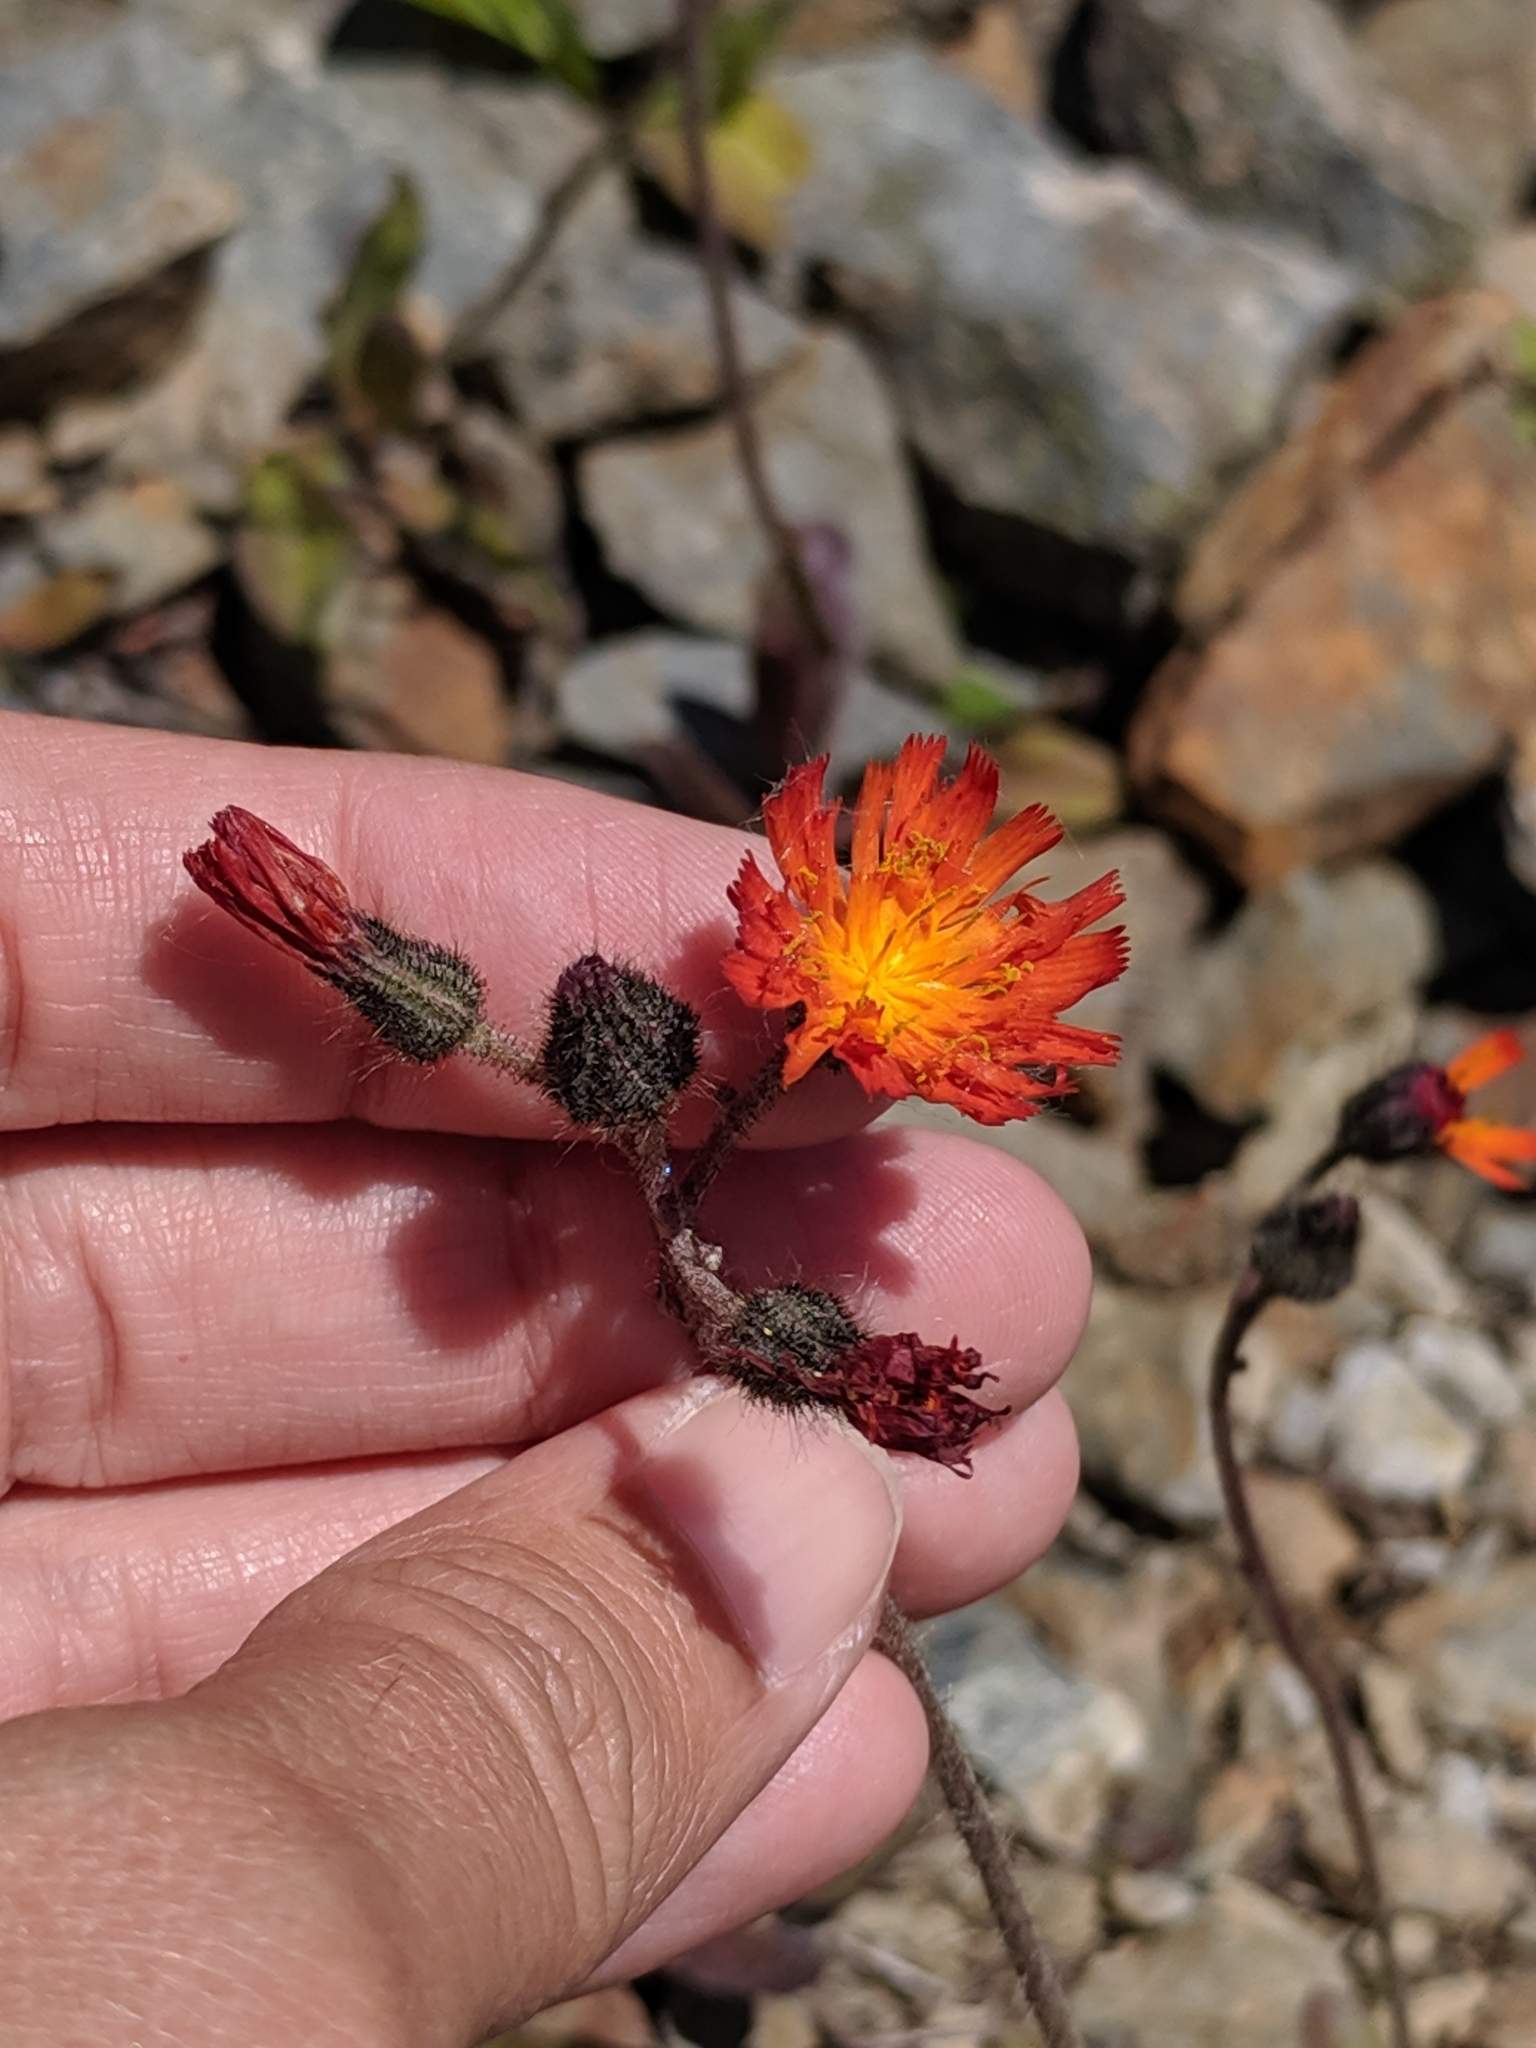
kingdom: Plantae
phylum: Tracheophyta
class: Magnoliopsida
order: Asterales
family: Asteraceae
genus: Pilosella
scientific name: Pilosella aurantiaca
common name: Fox-and-cubs
